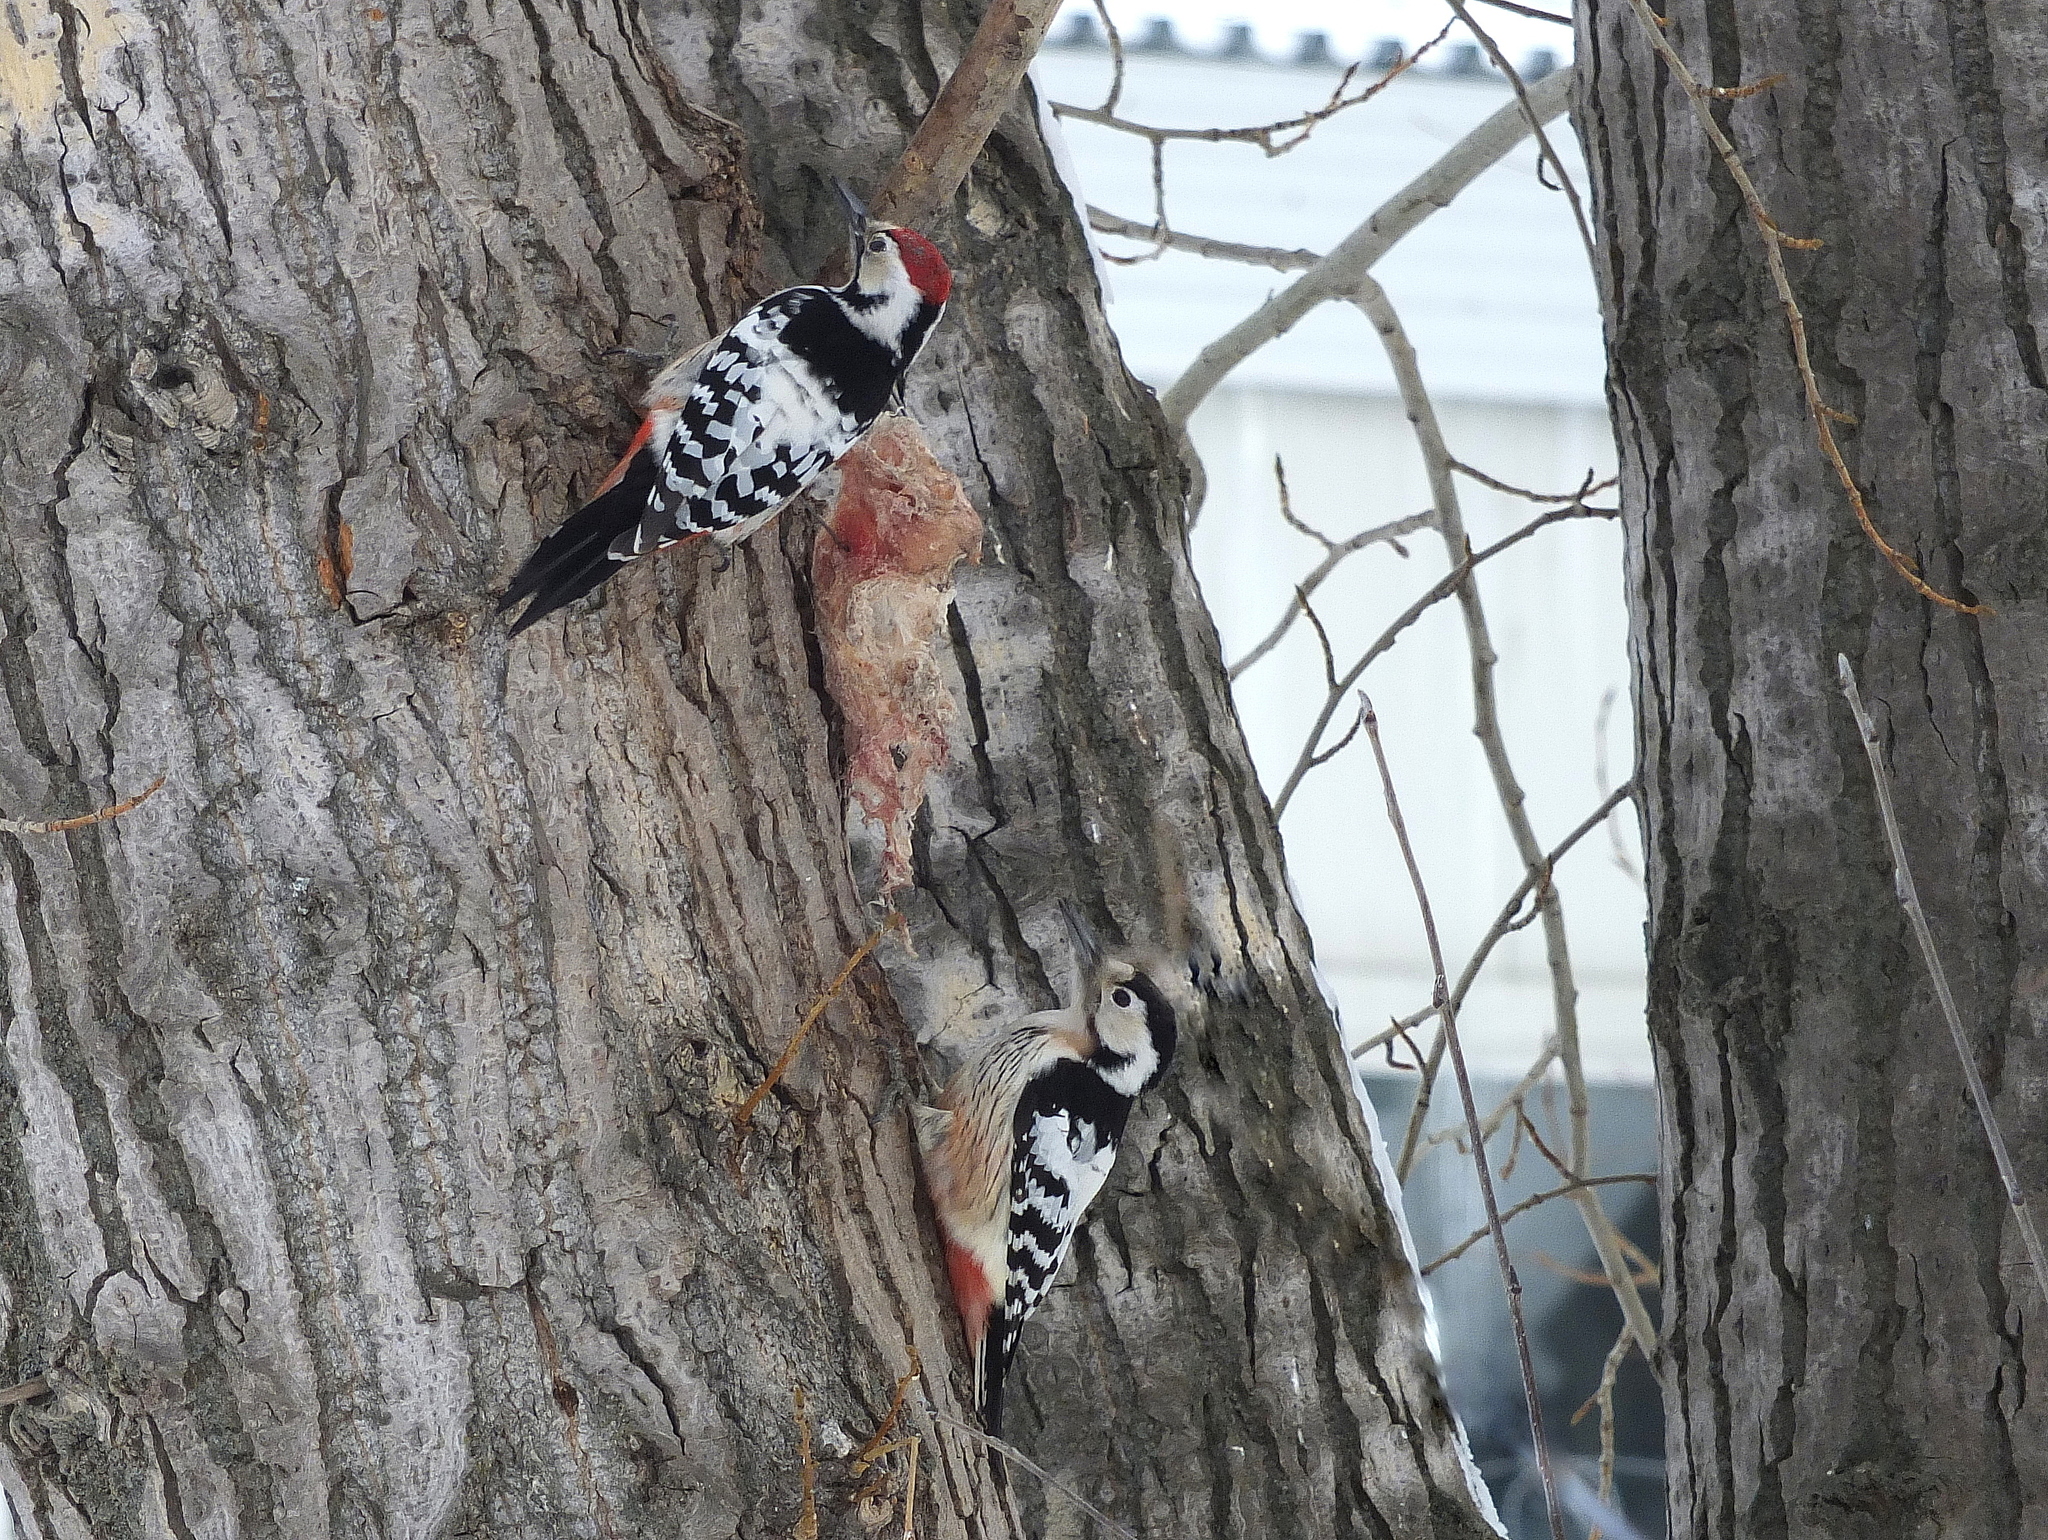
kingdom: Animalia
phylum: Chordata
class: Aves
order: Piciformes
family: Picidae
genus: Dendrocopos
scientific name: Dendrocopos leucotos
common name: White-backed woodpecker
